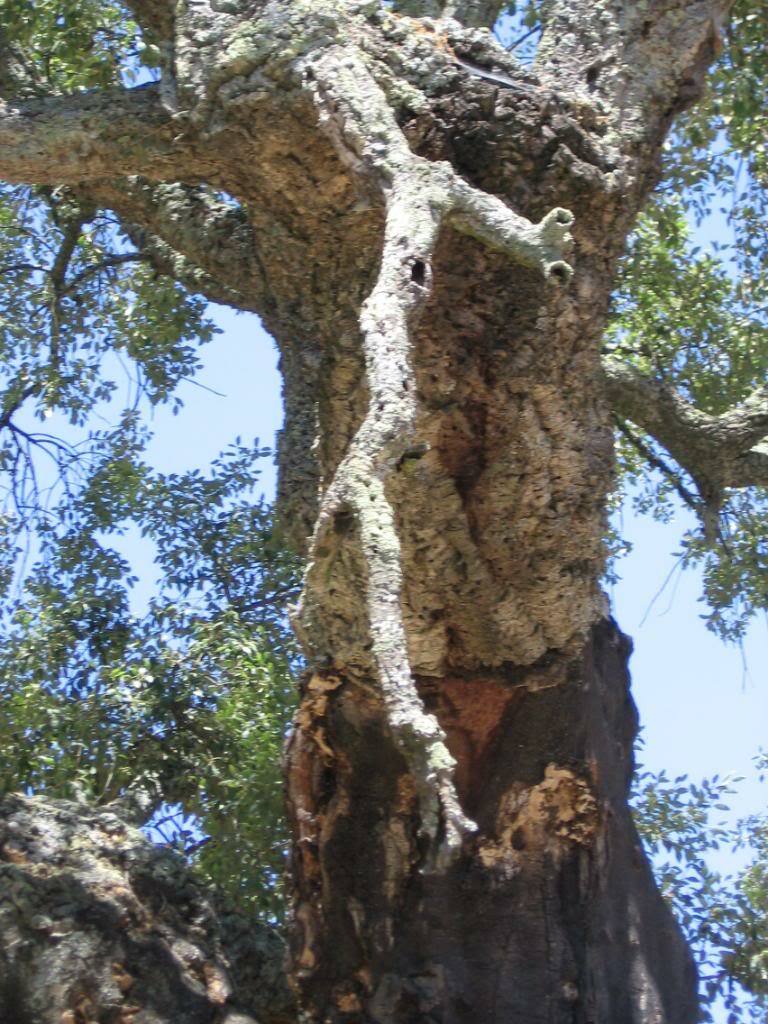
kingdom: Plantae
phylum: Tracheophyta
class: Magnoliopsida
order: Fagales
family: Fagaceae
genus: Quercus
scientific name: Quercus suber
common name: Cork oak
